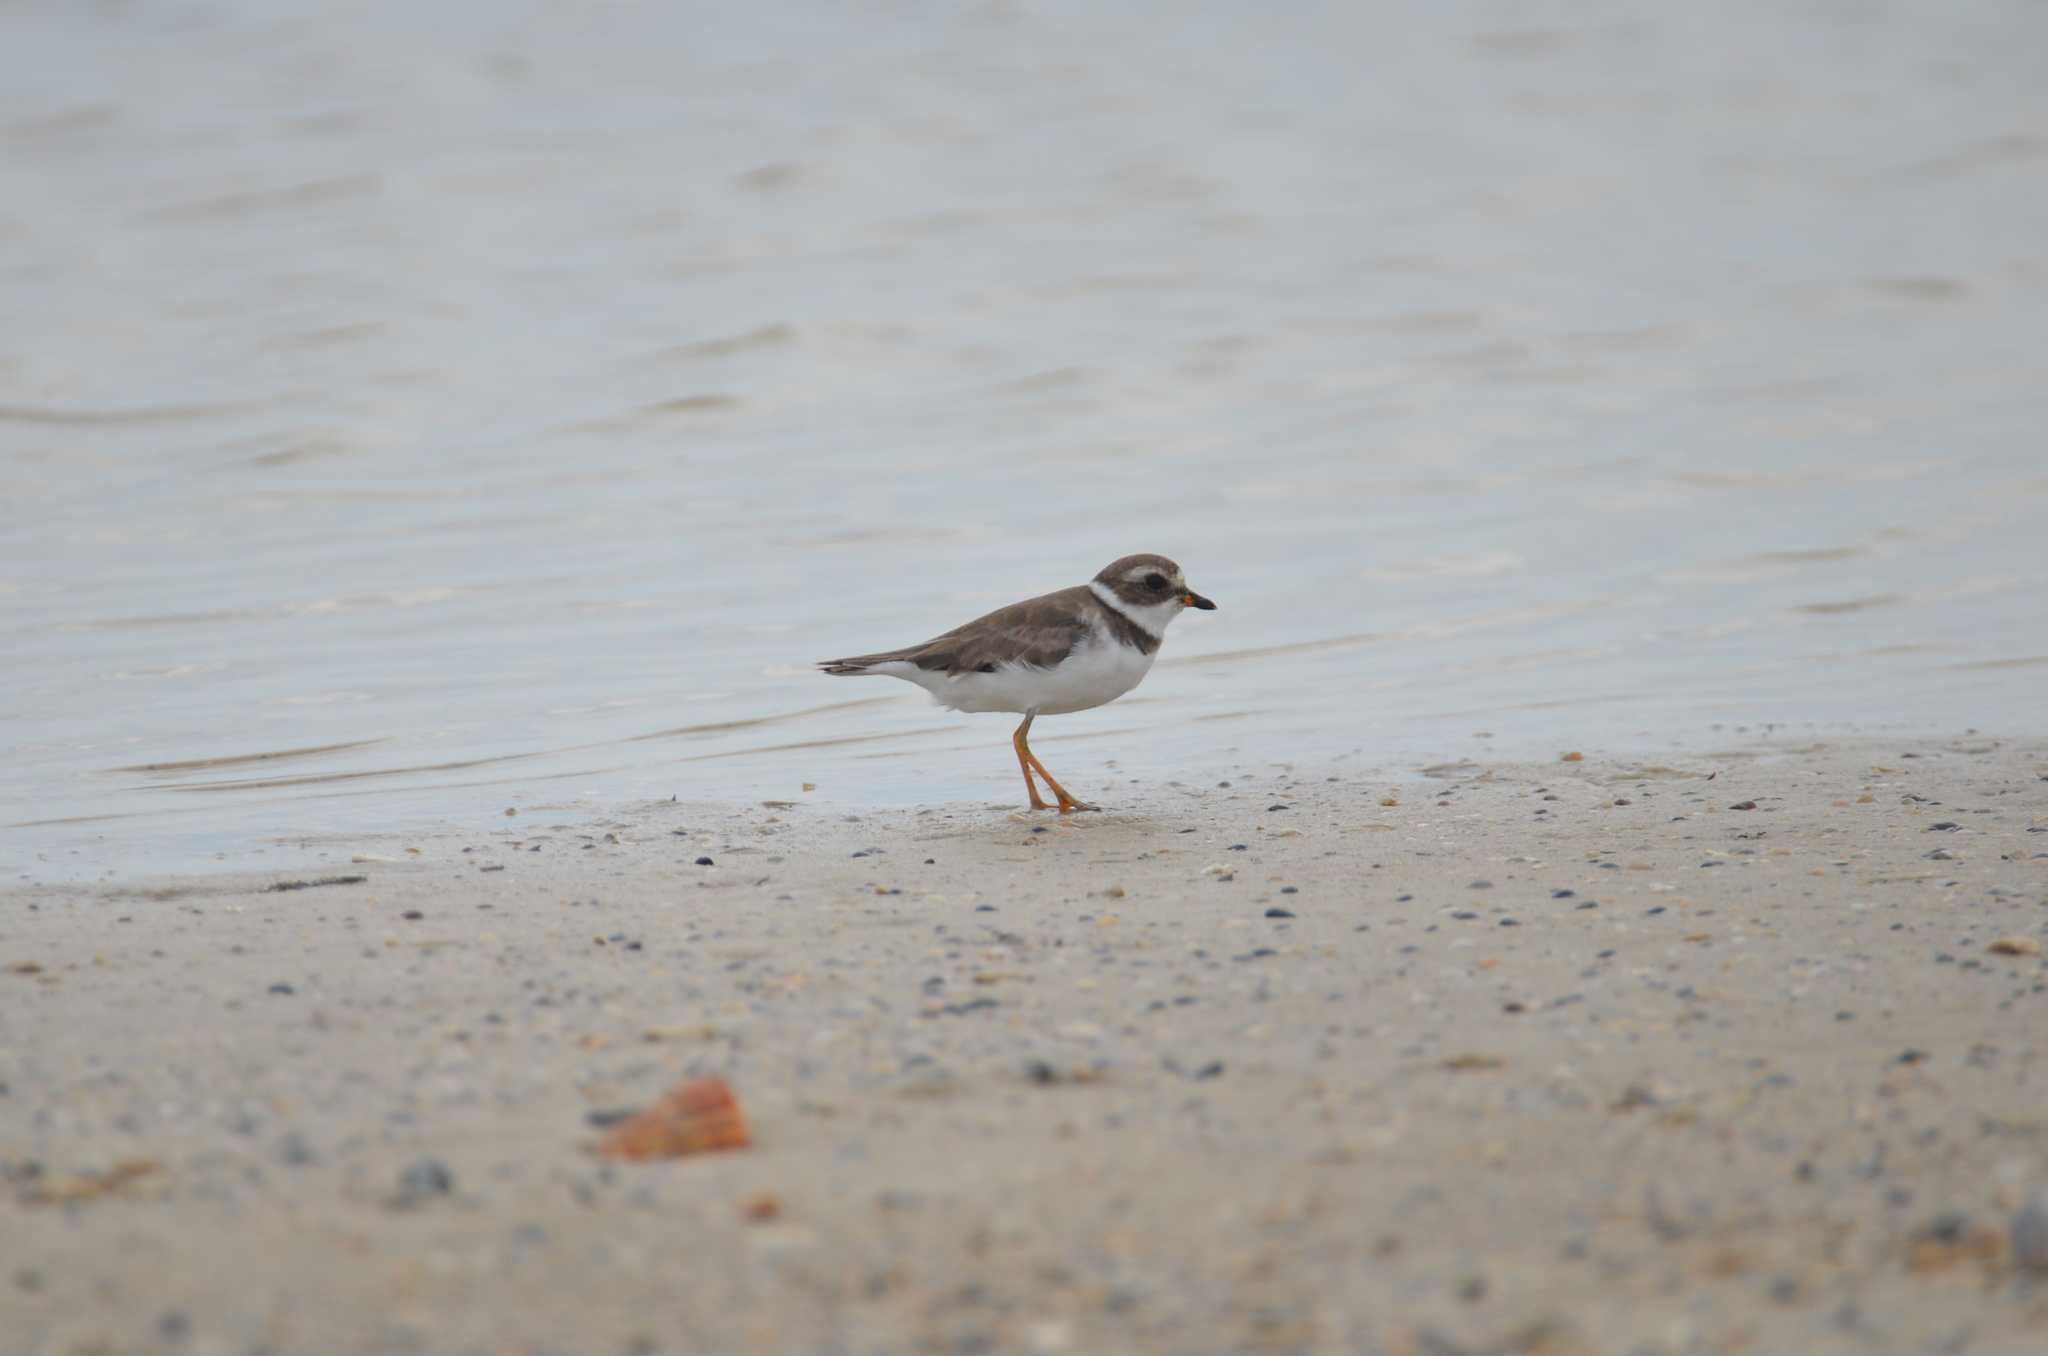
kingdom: Animalia
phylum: Chordata
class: Aves
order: Charadriiformes
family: Charadriidae
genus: Charadrius
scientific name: Charadrius semipalmatus
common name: Semipalmated plover
